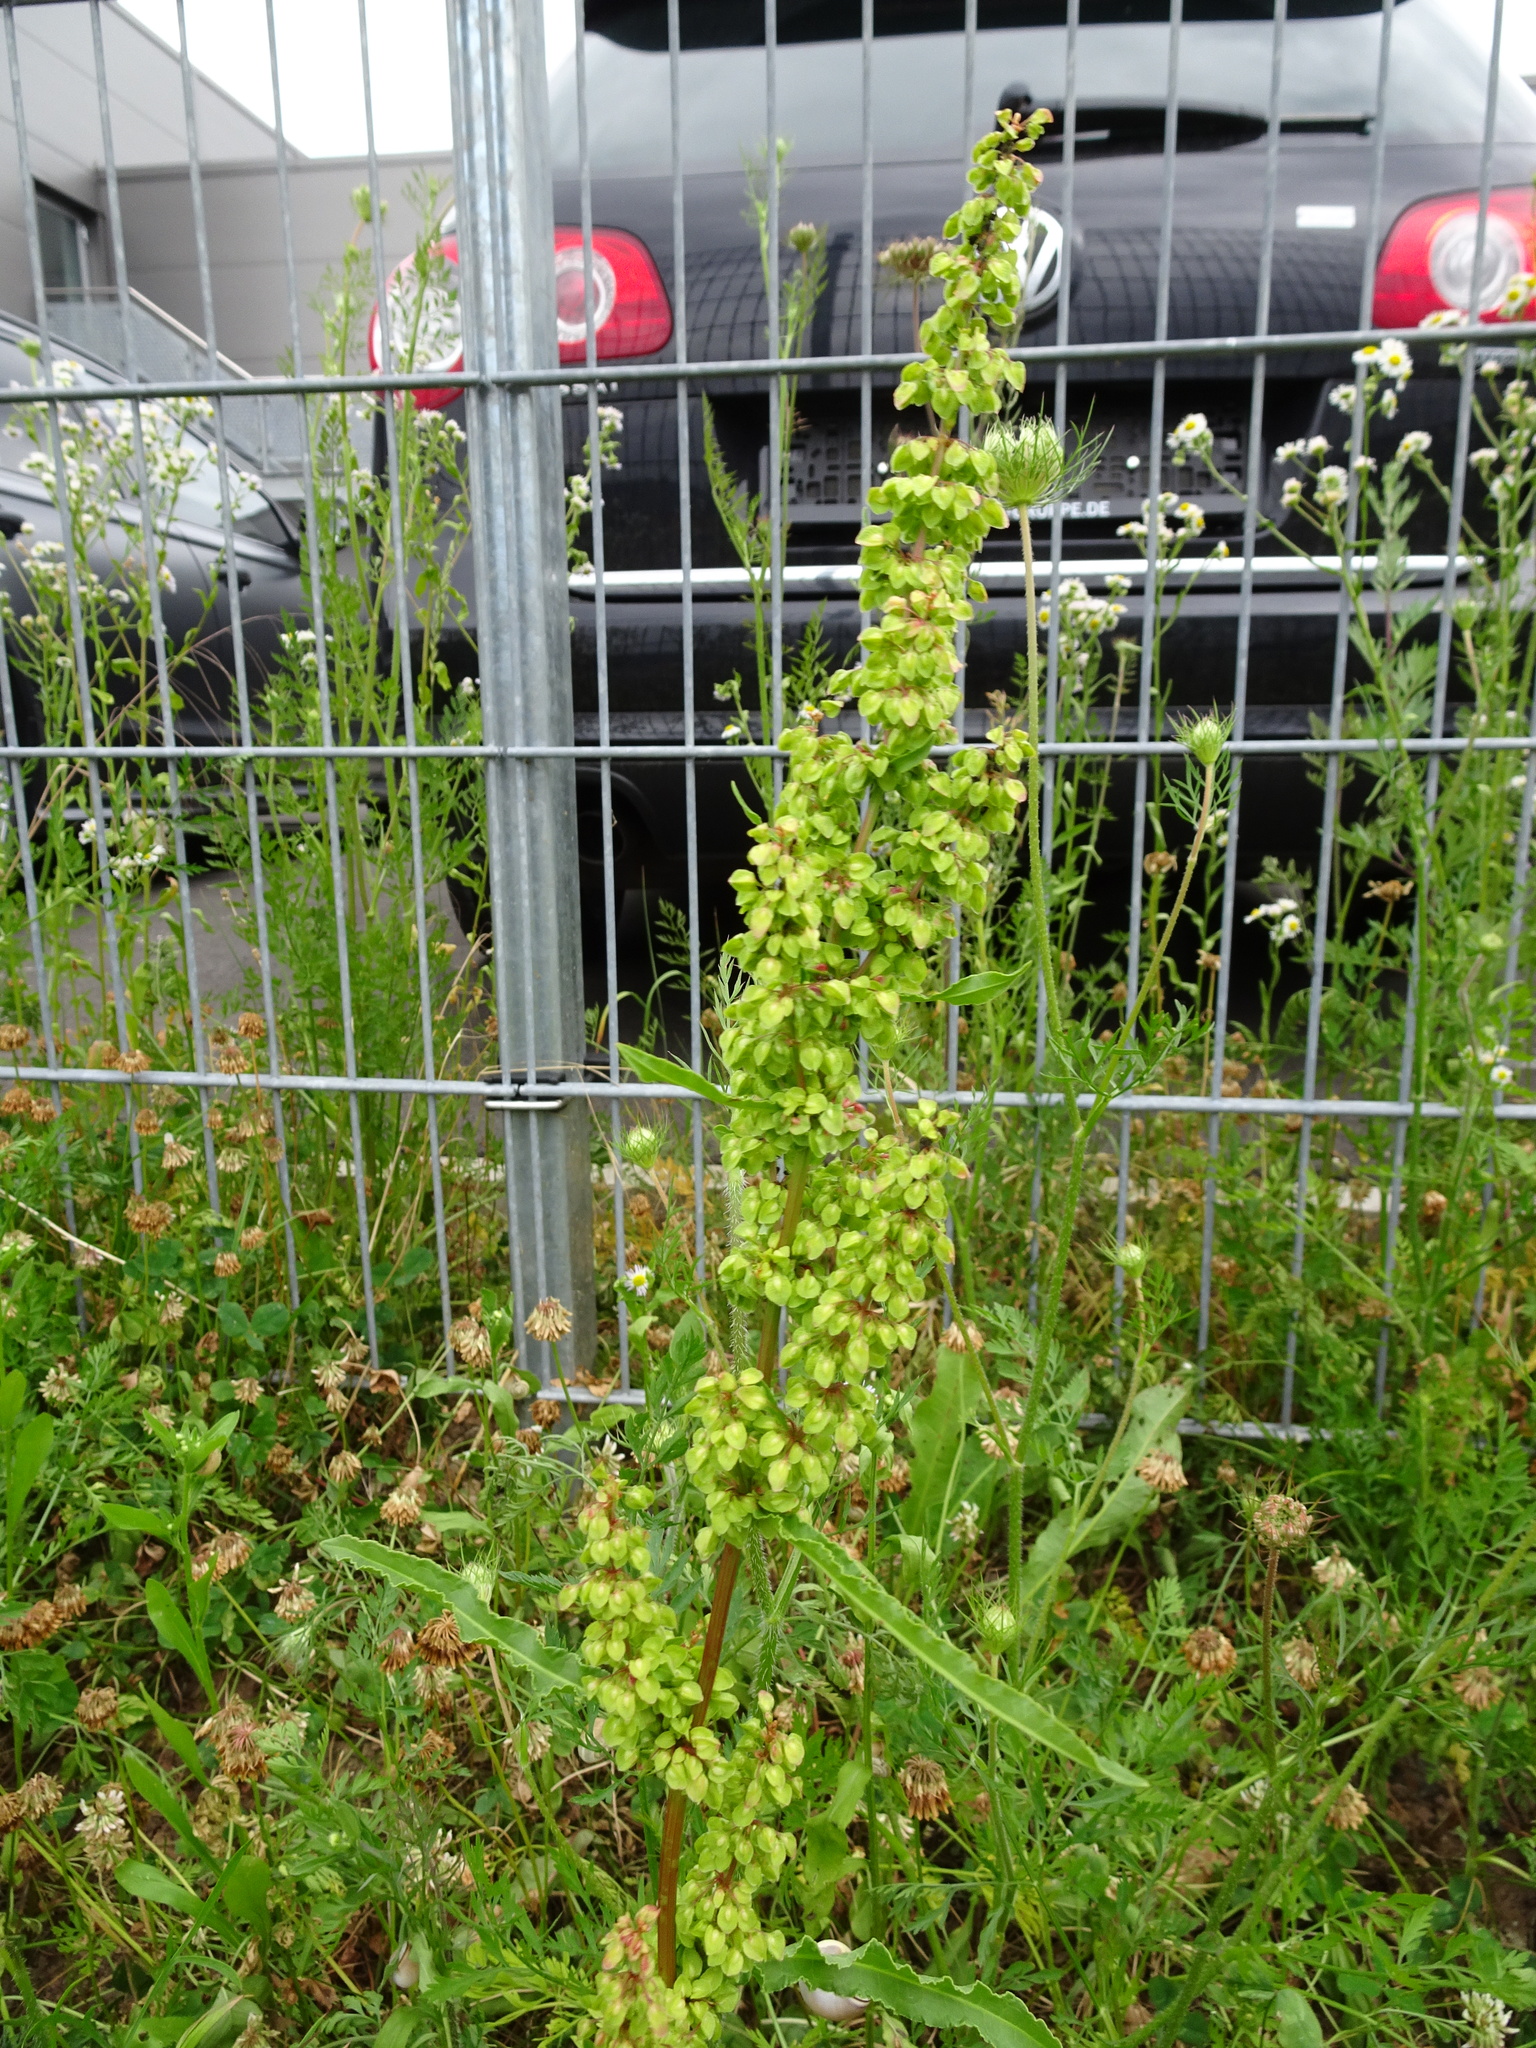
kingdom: Plantae
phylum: Tracheophyta
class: Magnoliopsida
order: Caryophyllales
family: Polygonaceae
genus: Rumex
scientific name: Rumex crispus
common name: Curled dock
